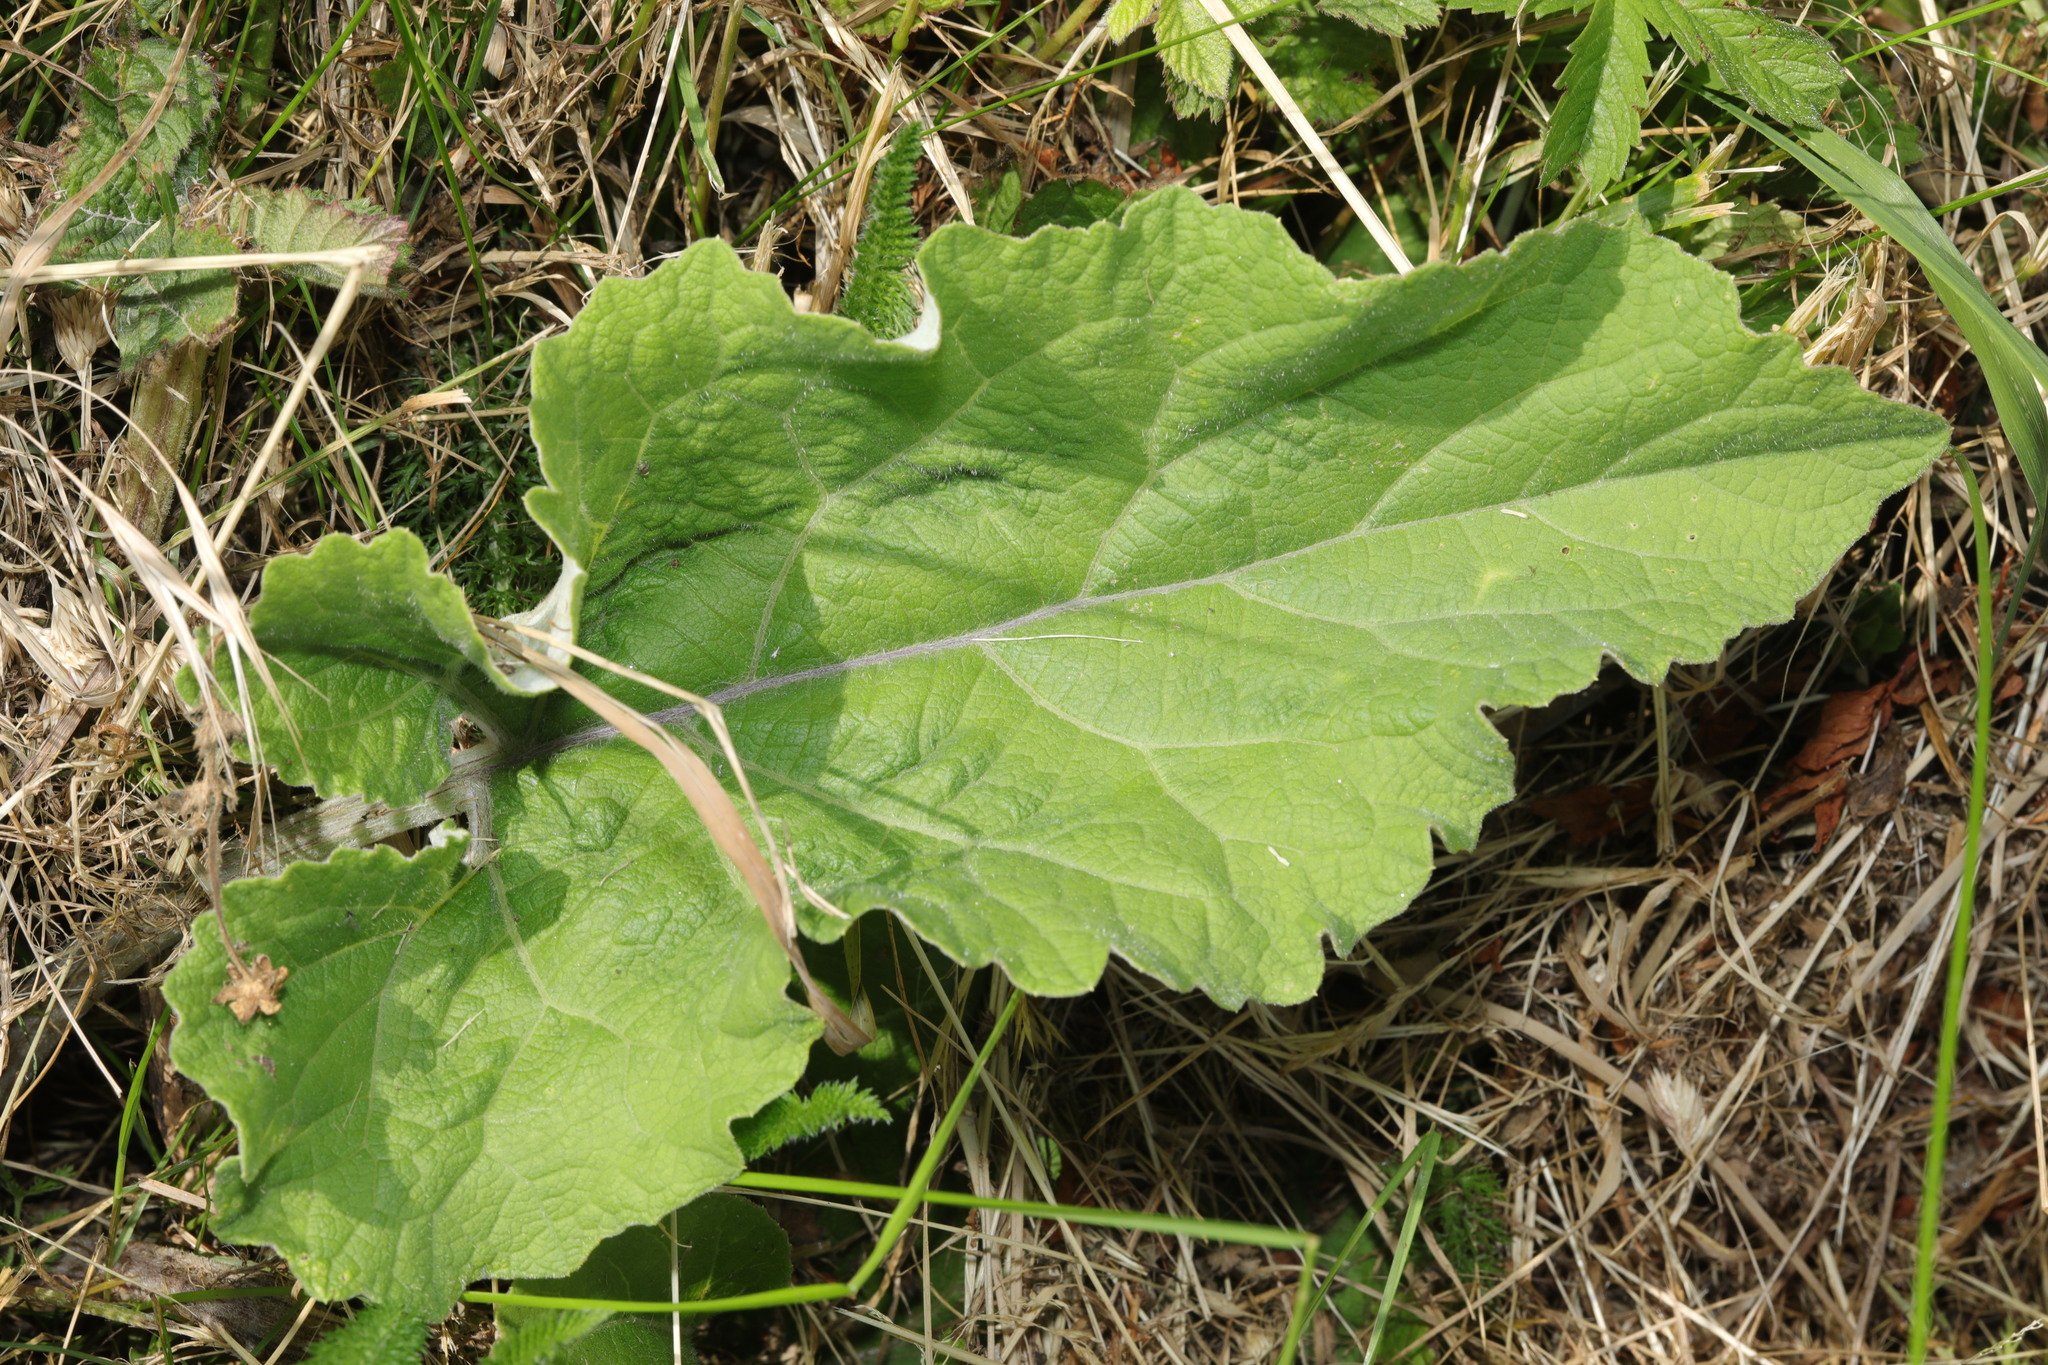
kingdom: Plantae
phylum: Tracheophyta
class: Magnoliopsida
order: Asterales
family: Asteraceae
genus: Arctium
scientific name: Arctium minus
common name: Lesser burdock
